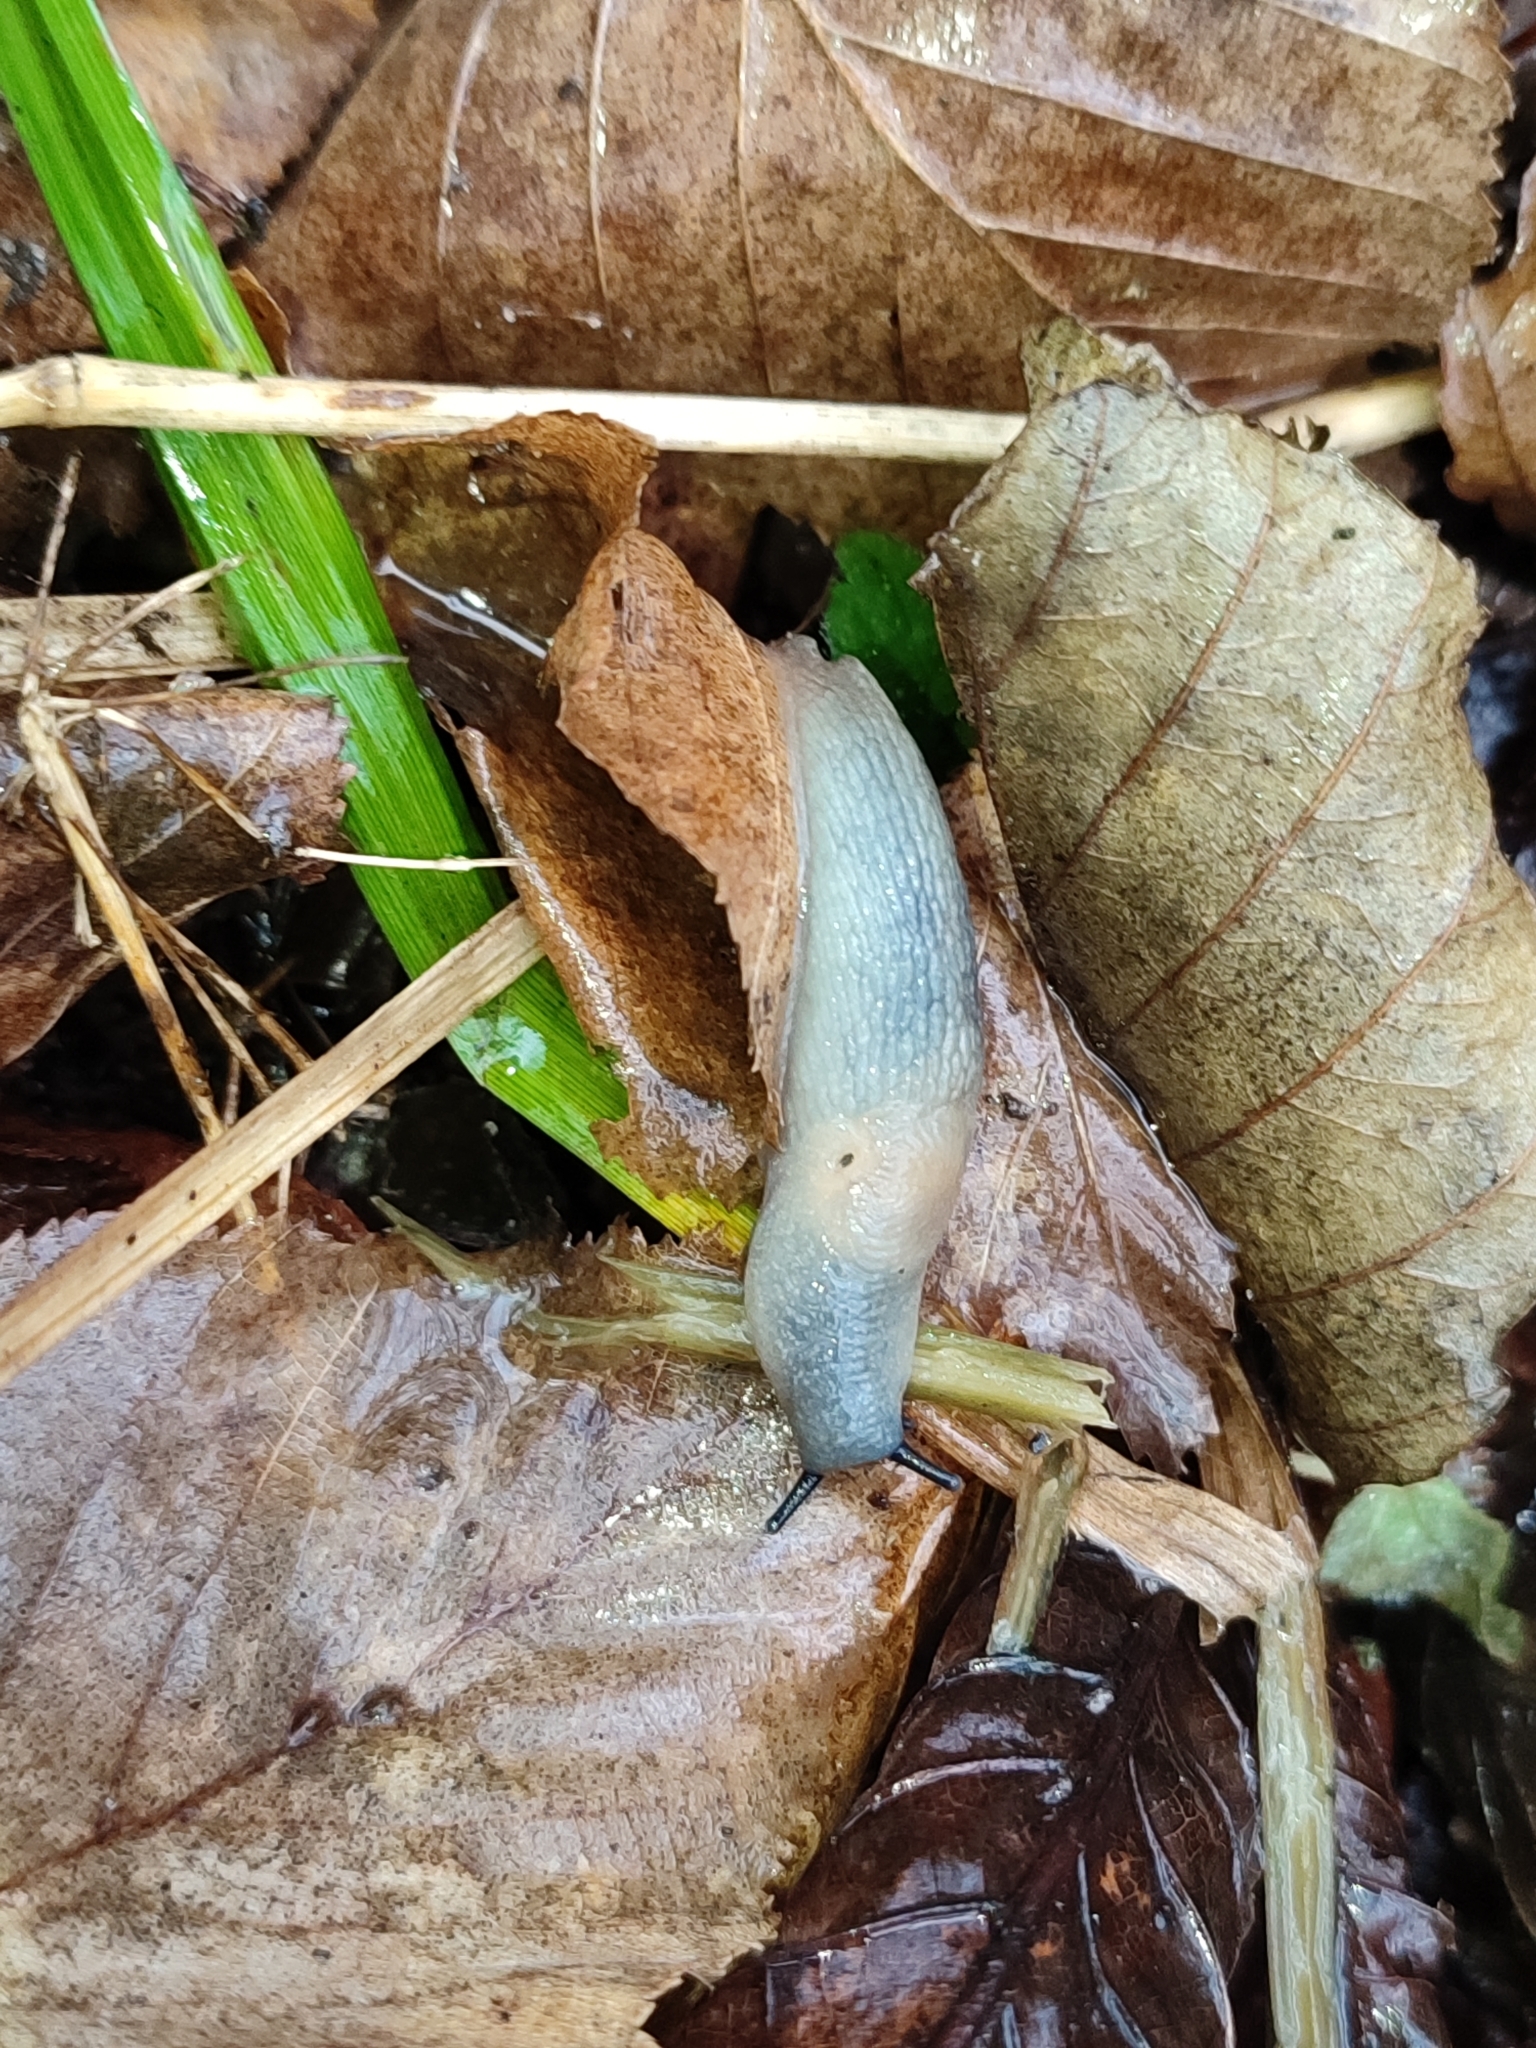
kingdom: Animalia
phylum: Mollusca
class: Gastropoda
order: Stylommatophora
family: Agriolimacidae
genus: Krynickillus
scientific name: Krynickillus melanocephalus
